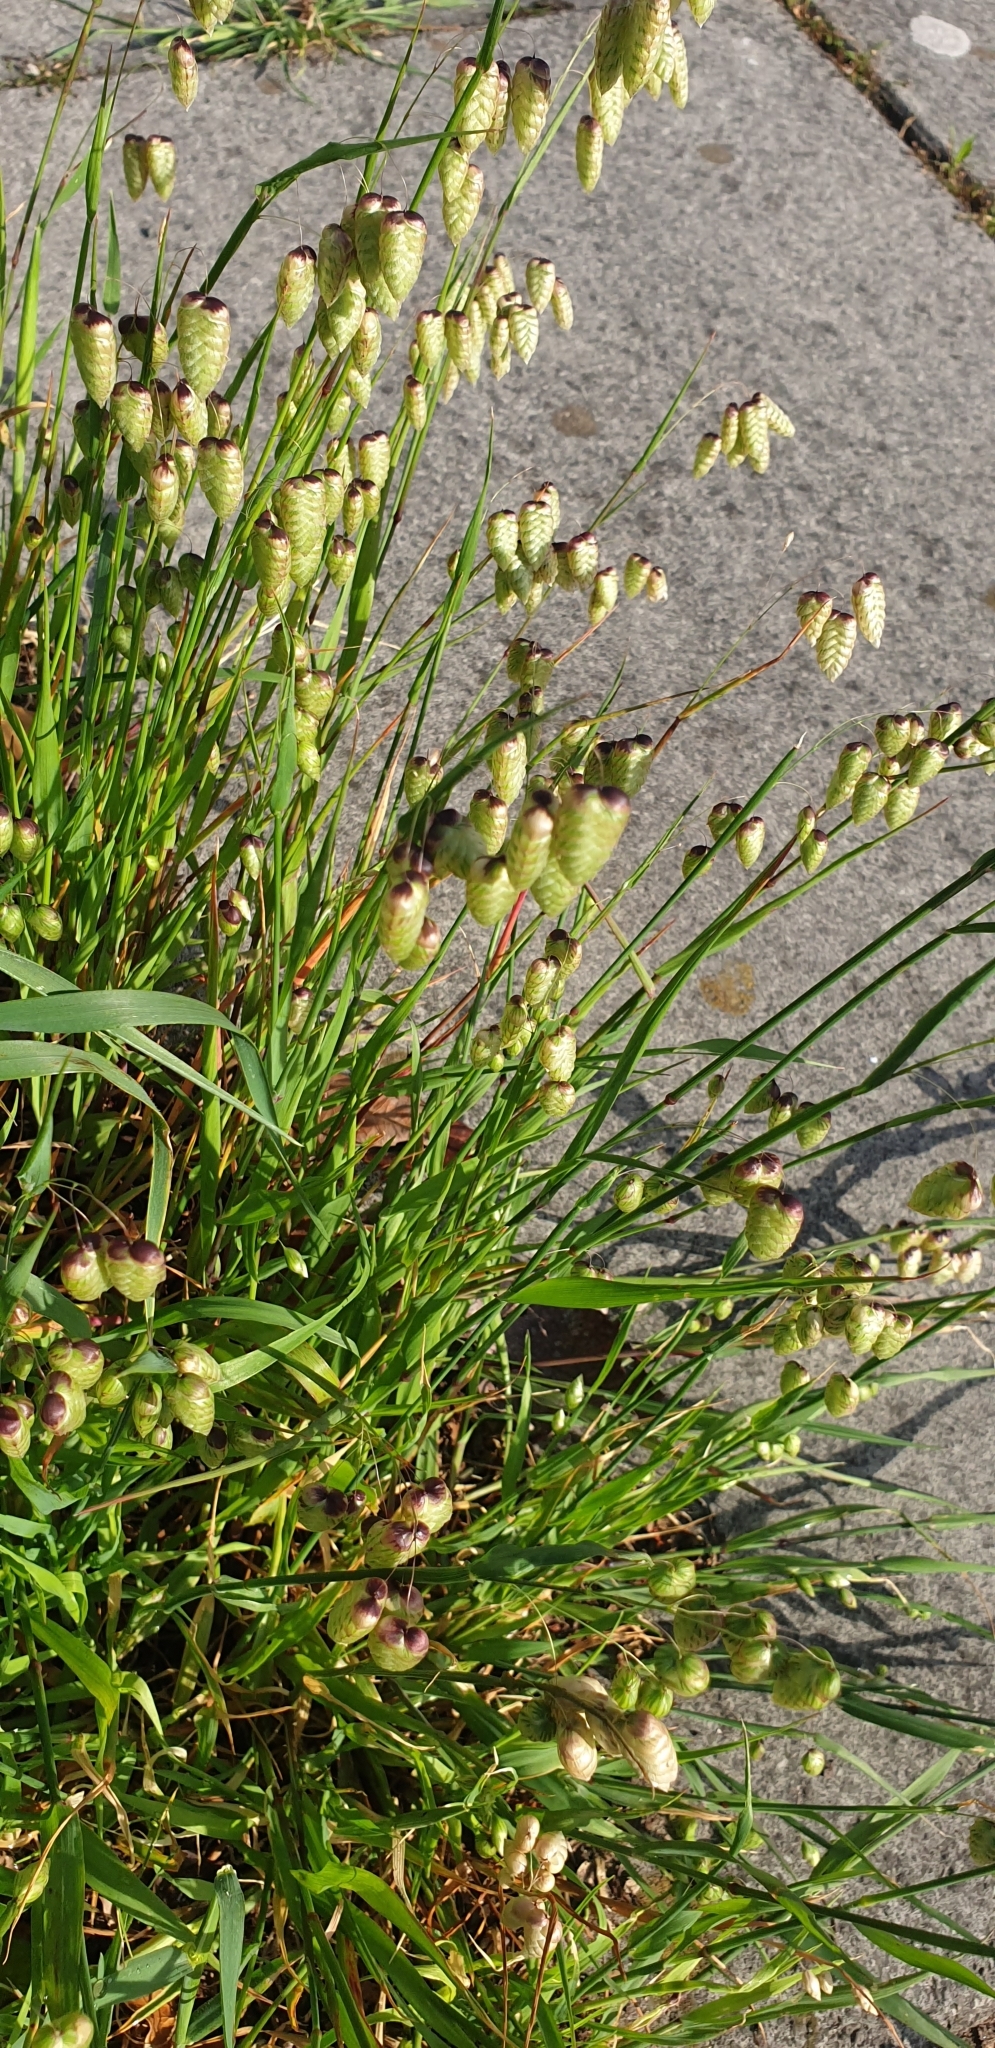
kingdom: Plantae
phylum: Tracheophyta
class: Liliopsida
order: Poales
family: Poaceae
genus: Briza
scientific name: Briza maxima
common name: Big quakinggrass
